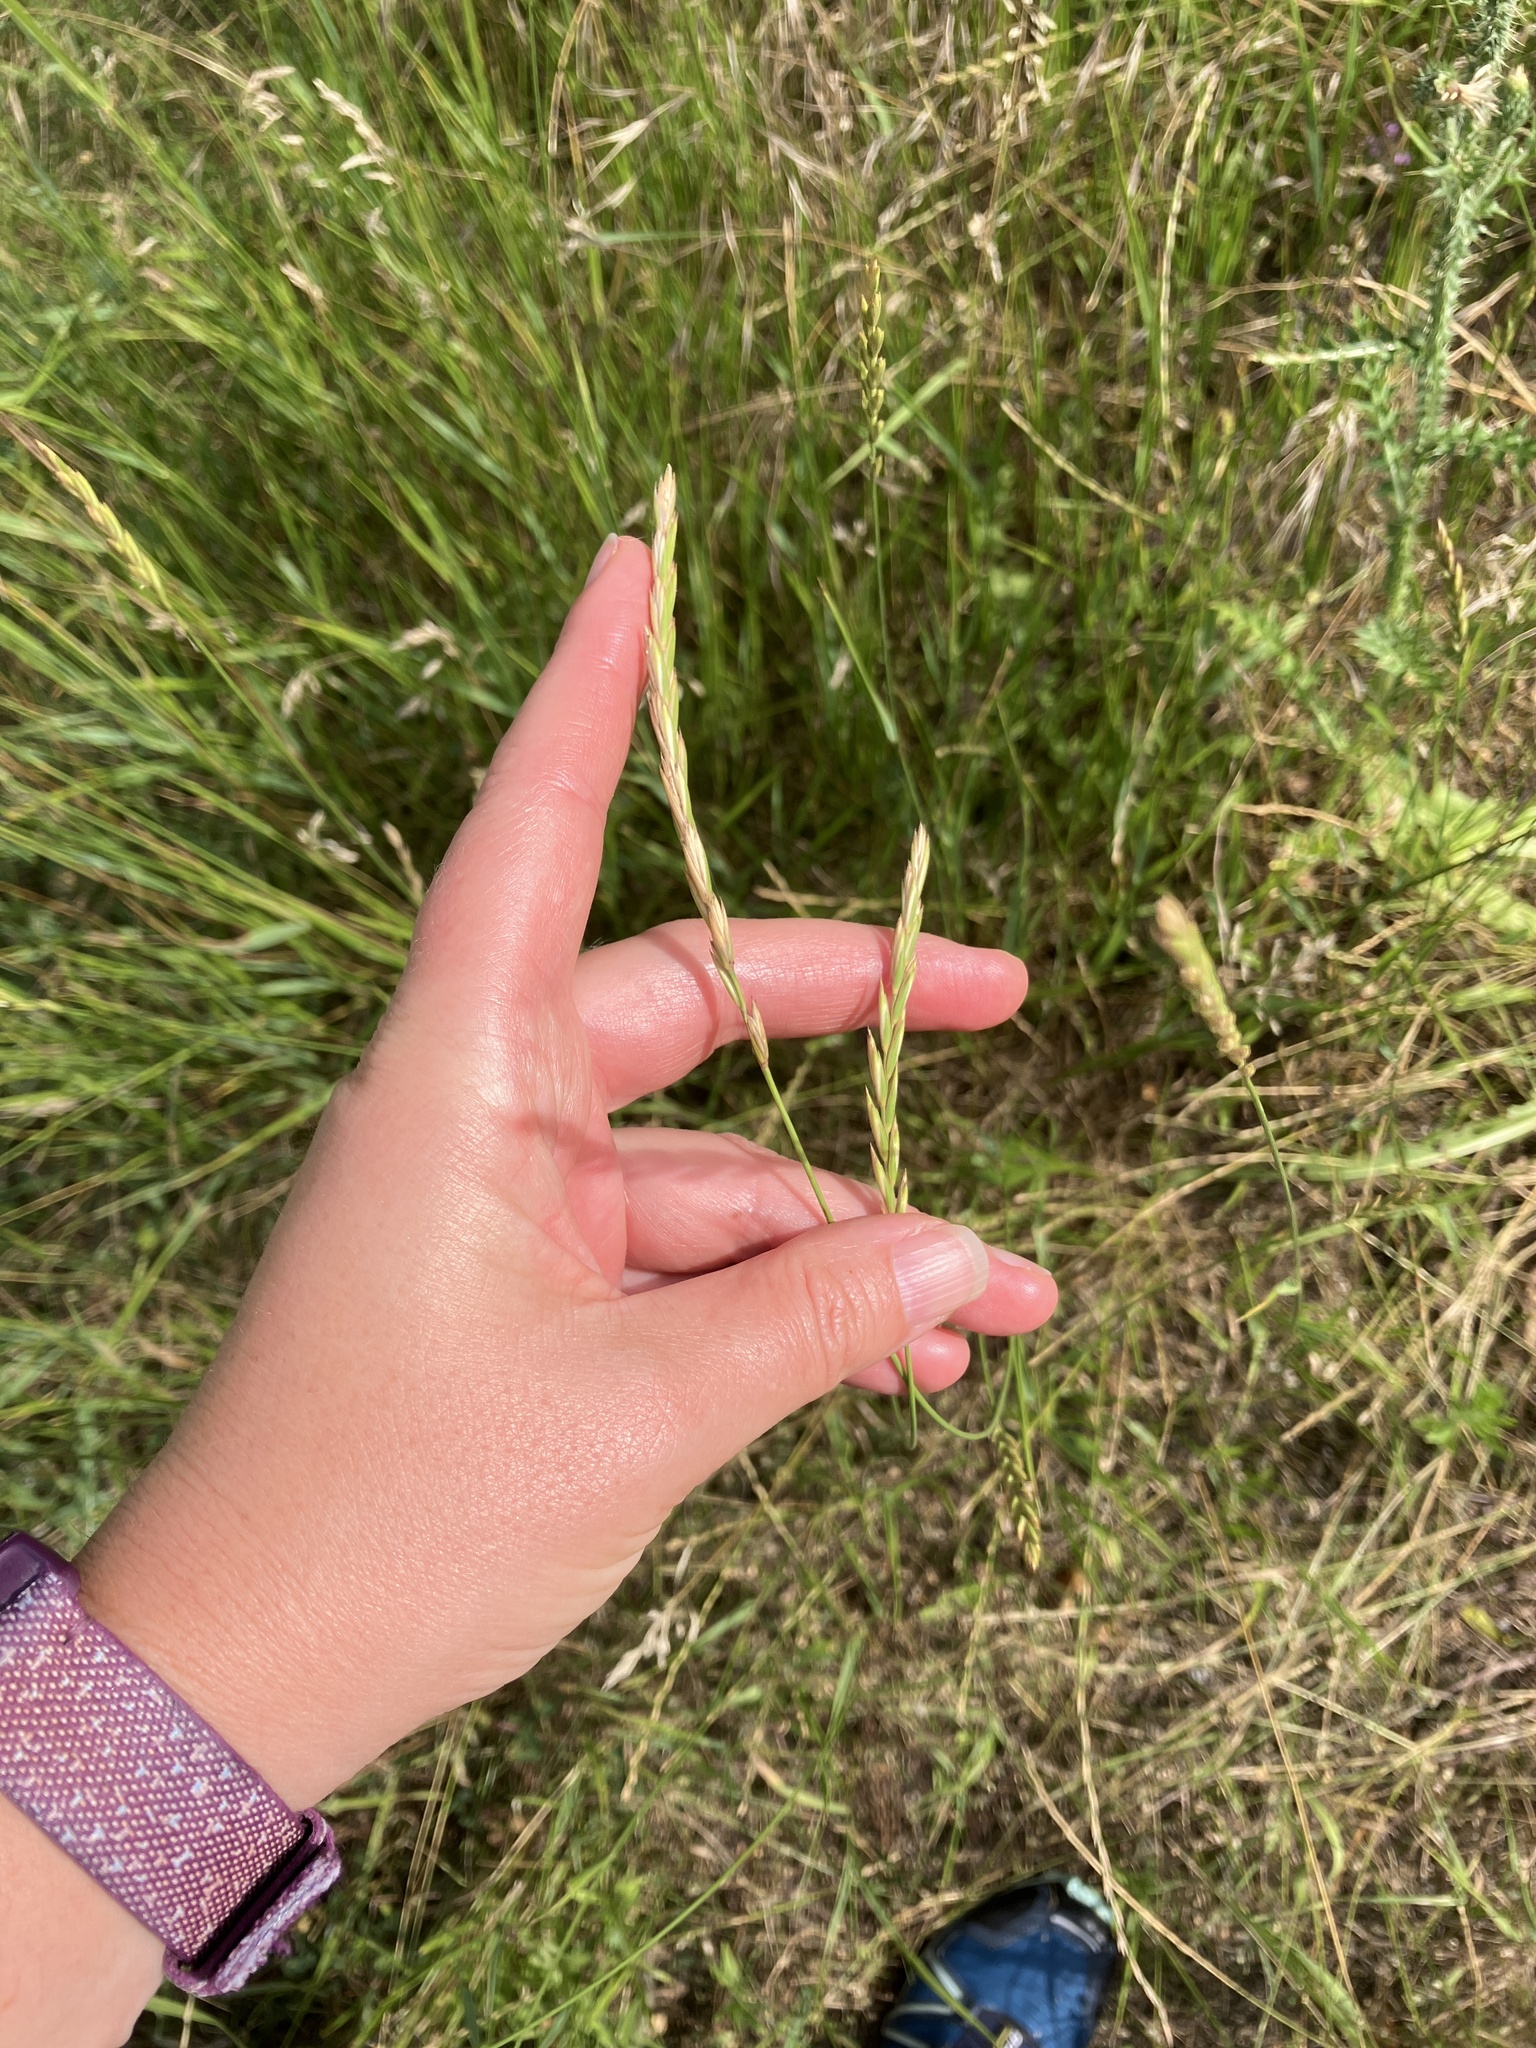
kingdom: Plantae
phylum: Tracheophyta
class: Liliopsida
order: Poales
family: Poaceae
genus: Elymus
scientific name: Elymus repens
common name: Quackgrass
